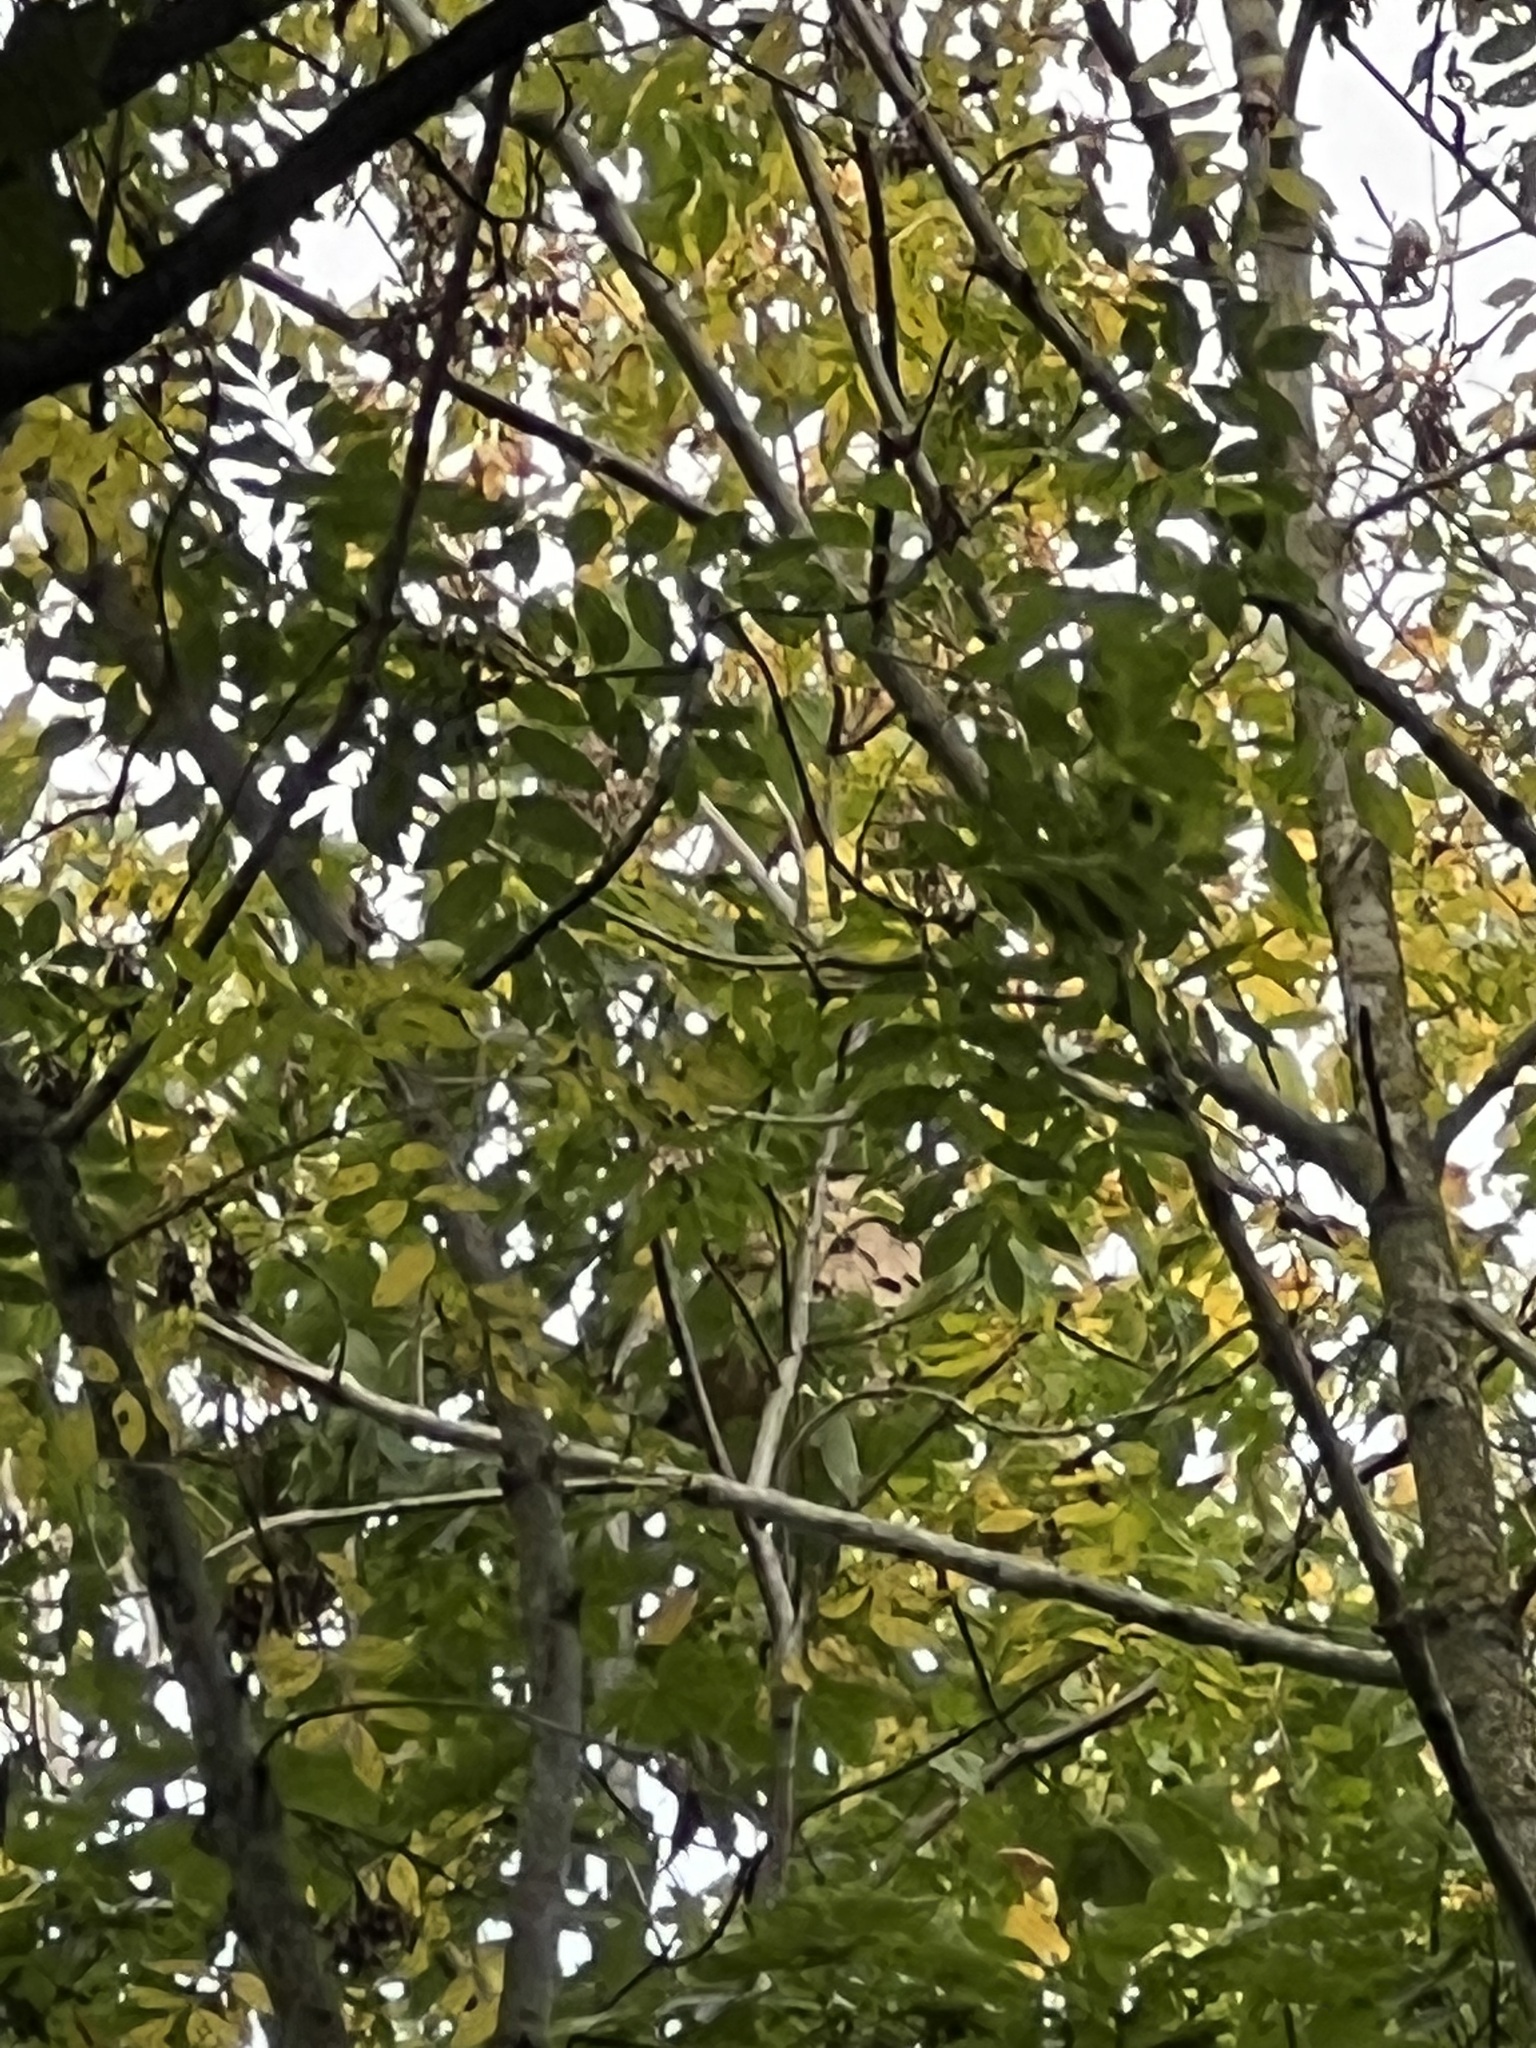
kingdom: Animalia
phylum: Arthropoda
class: Insecta
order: Hymenoptera
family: Vespidae
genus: Vespa
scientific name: Vespa velutina
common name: Asian hornet
